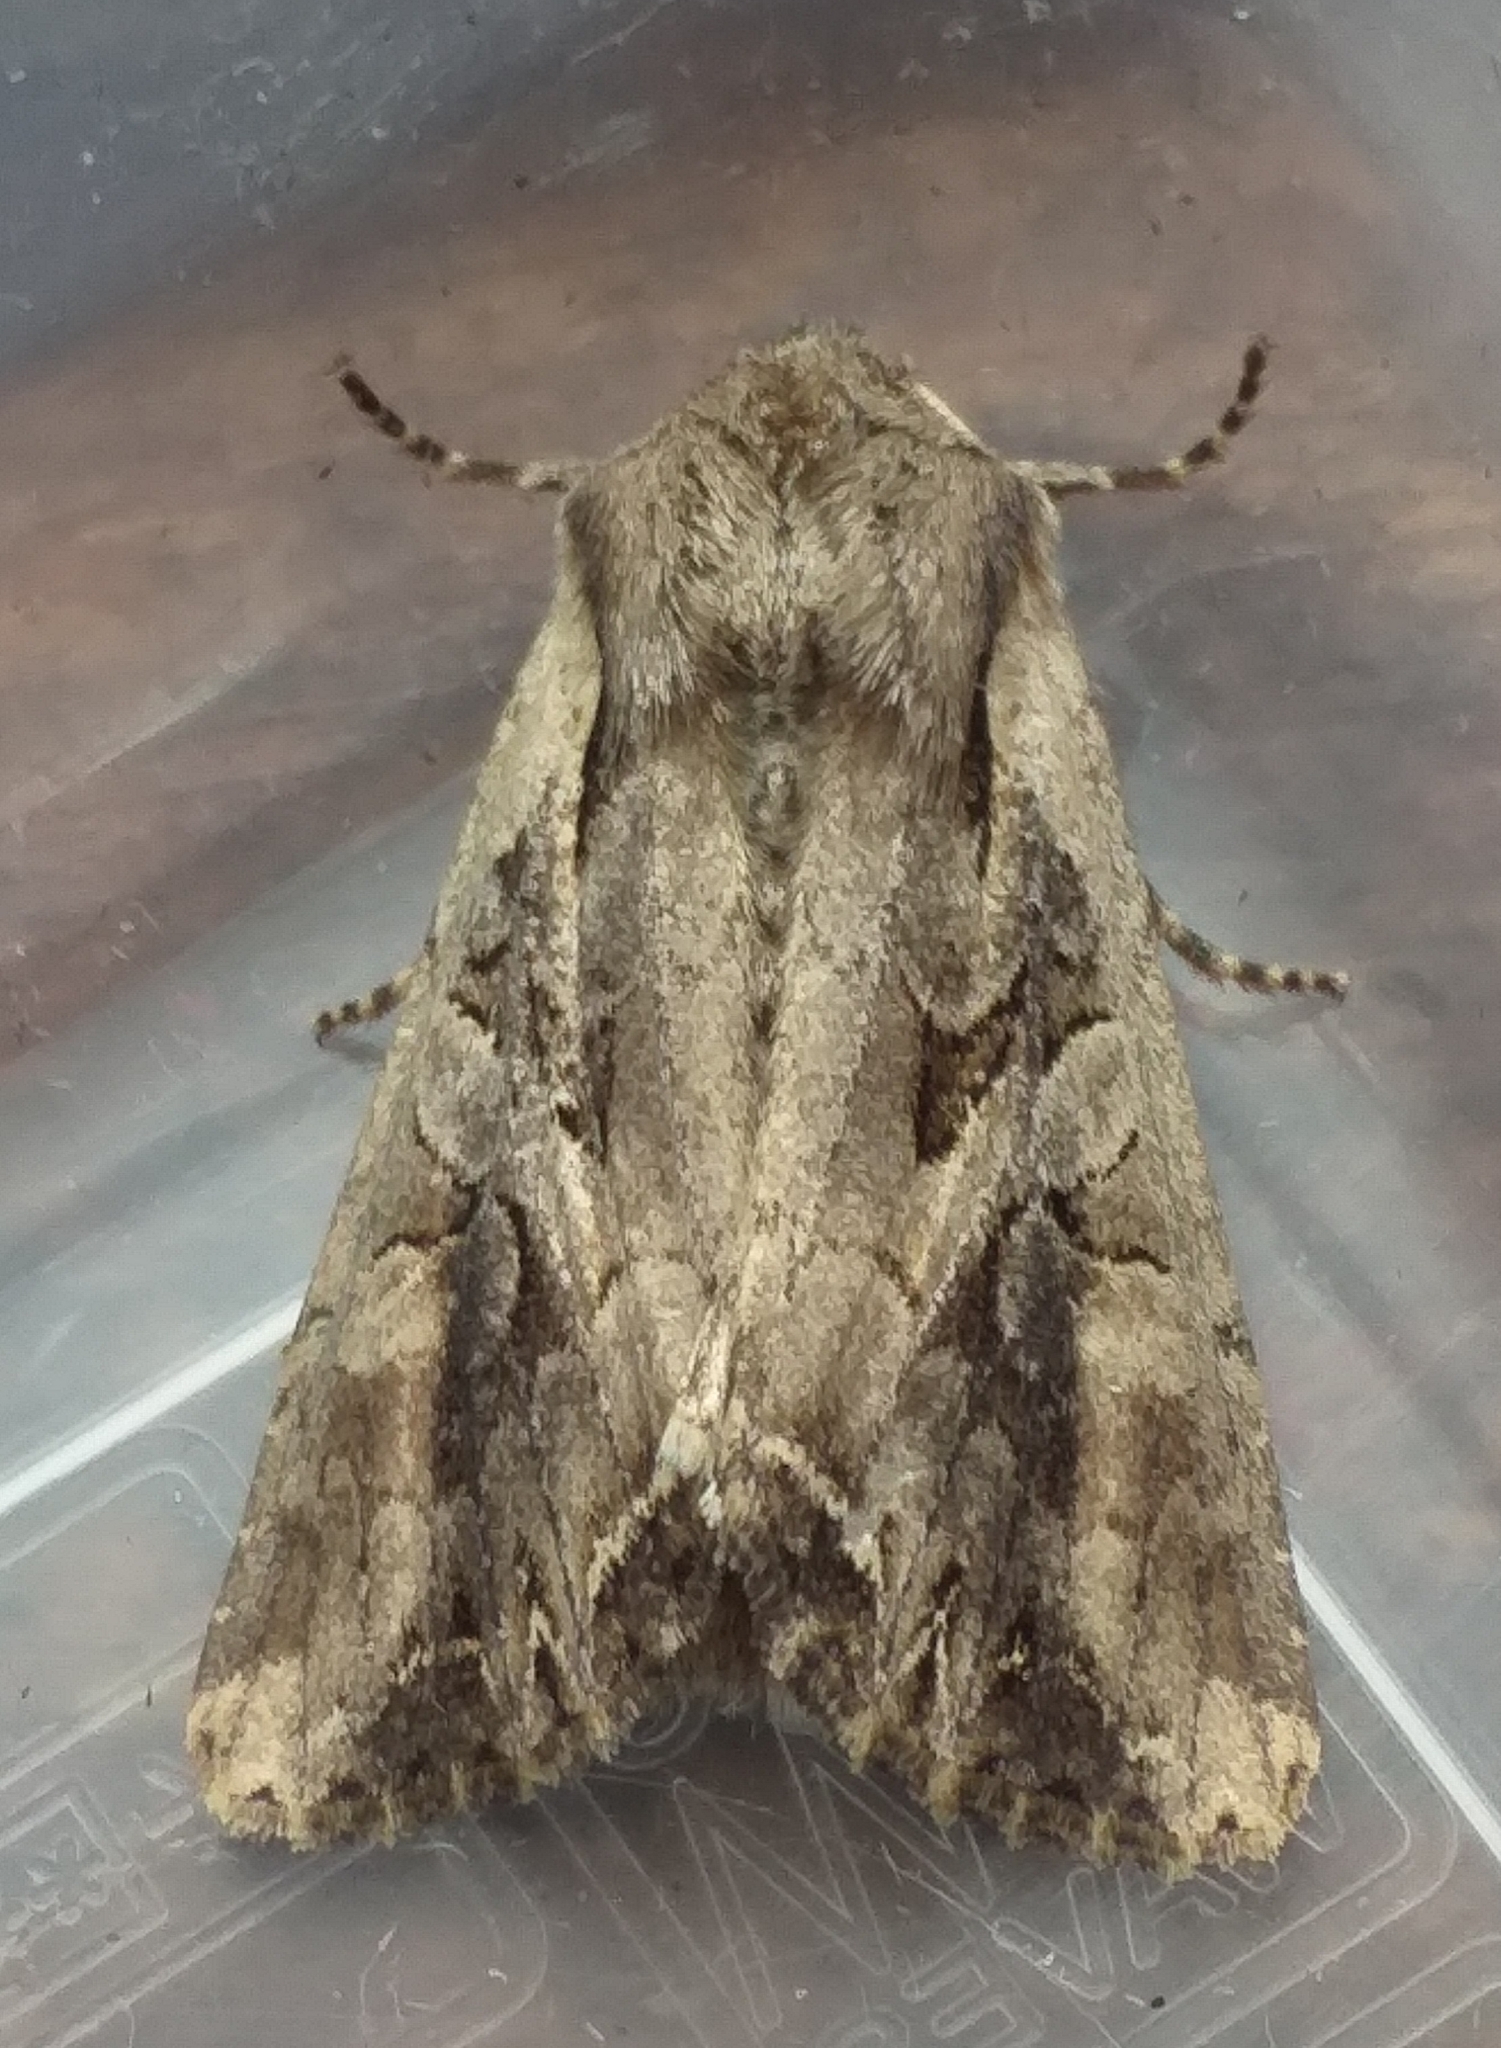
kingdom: Animalia
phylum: Arthropoda
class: Insecta
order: Lepidoptera
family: Noctuidae
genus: Lacanobia
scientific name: Lacanobia suasa
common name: Dog's tooth
